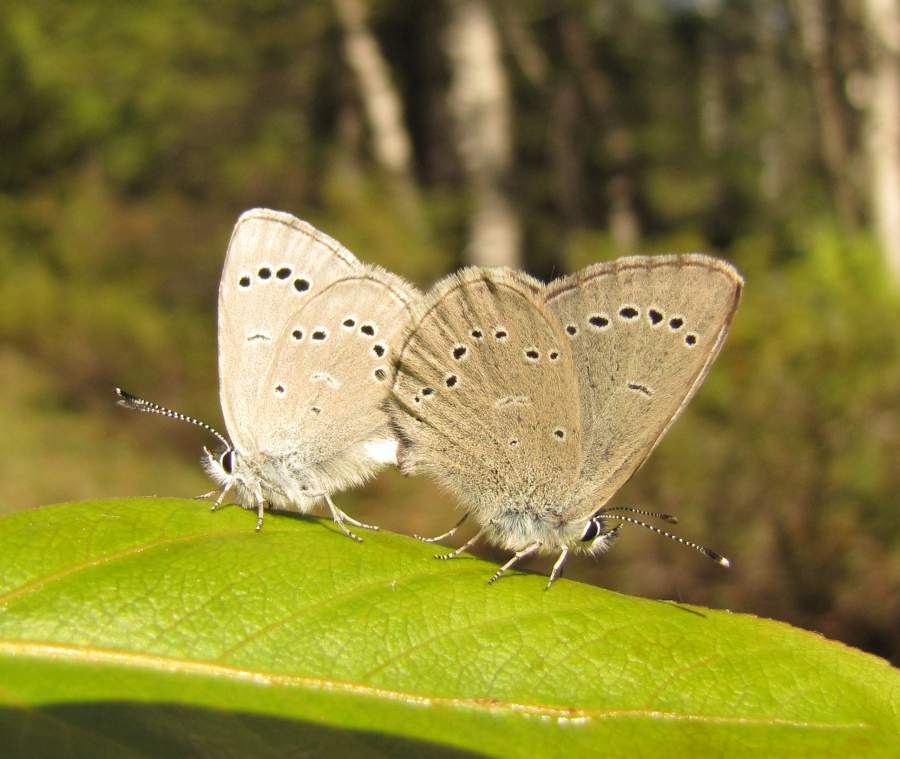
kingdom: Animalia
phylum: Arthropoda
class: Insecta
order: Lepidoptera
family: Lycaenidae
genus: Glaucopsyche
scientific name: Glaucopsyche lygdamus
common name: Silvery blue
